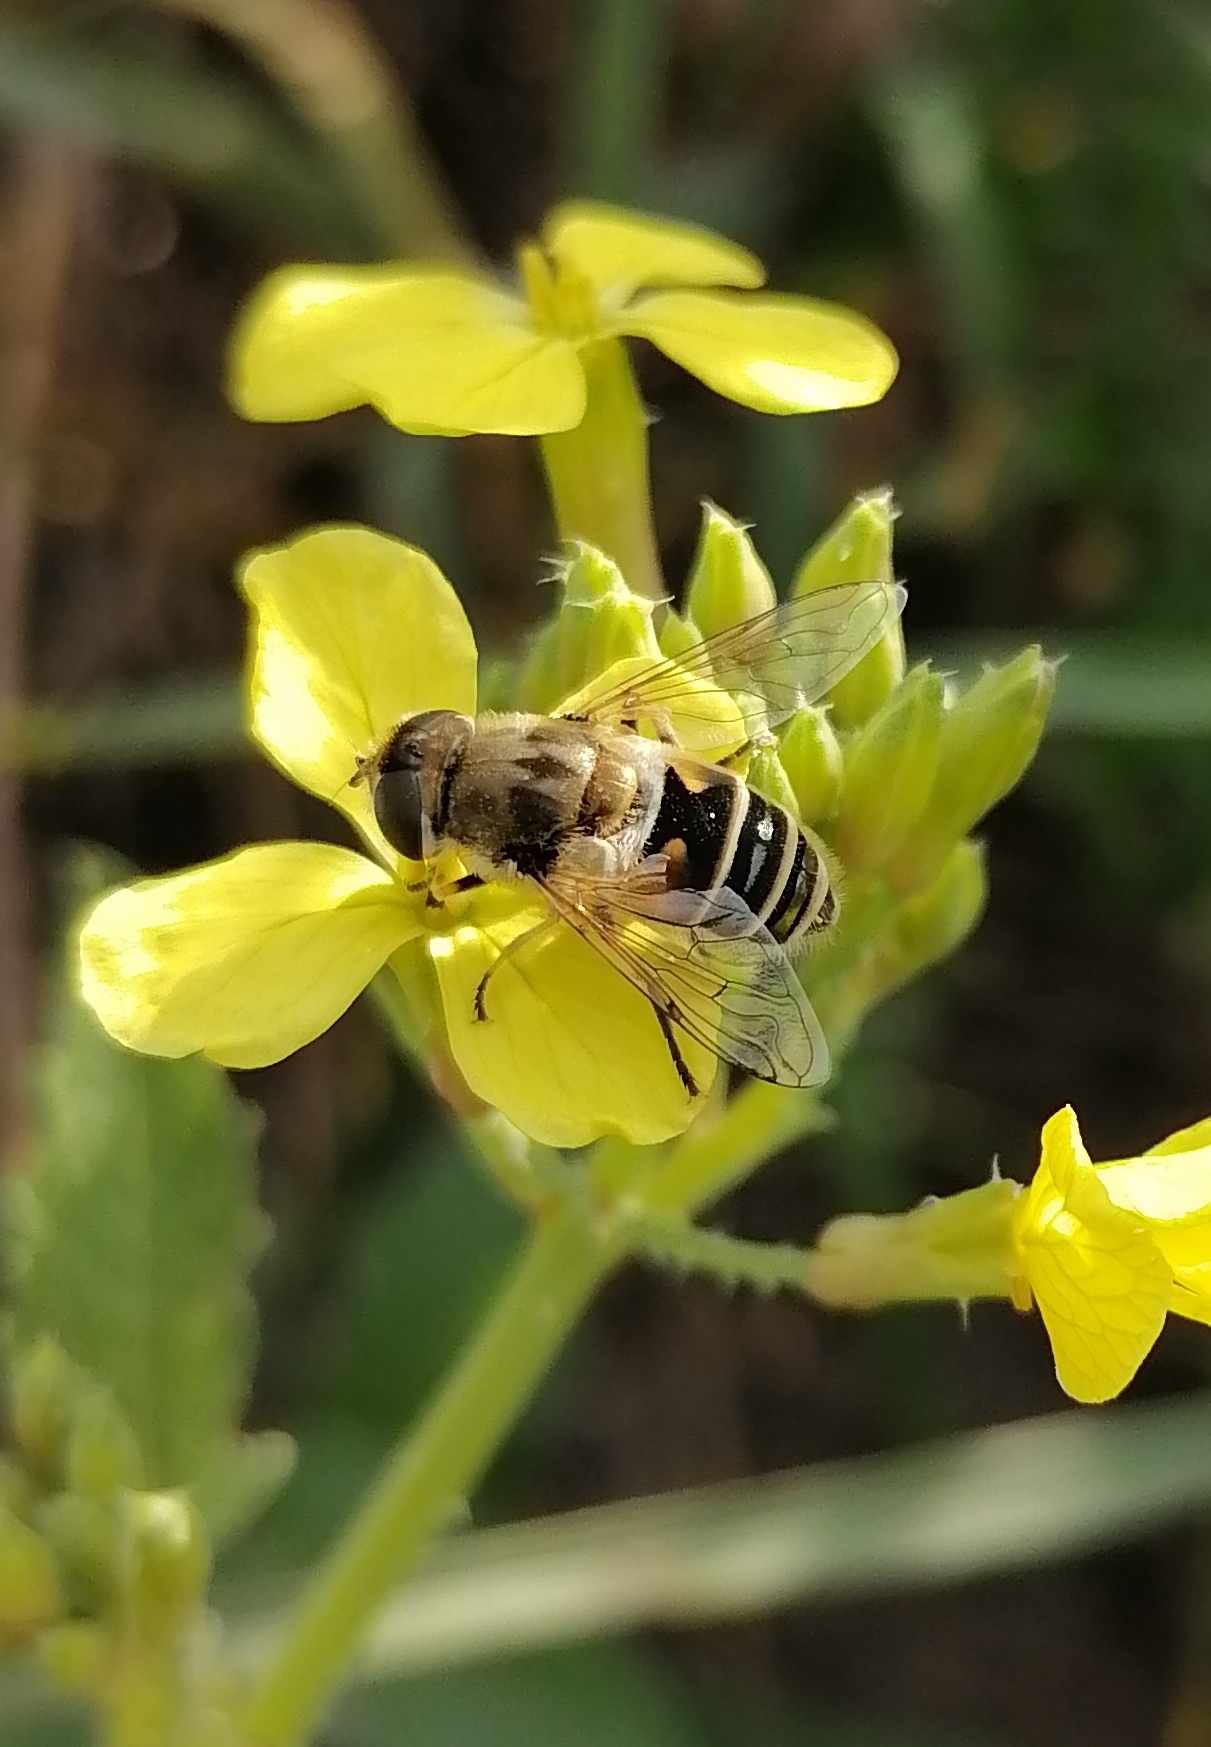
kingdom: Animalia
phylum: Arthropoda
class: Insecta
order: Diptera
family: Syrphidae
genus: Eristalis
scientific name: Eristalis arbustorum
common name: Hover fly
